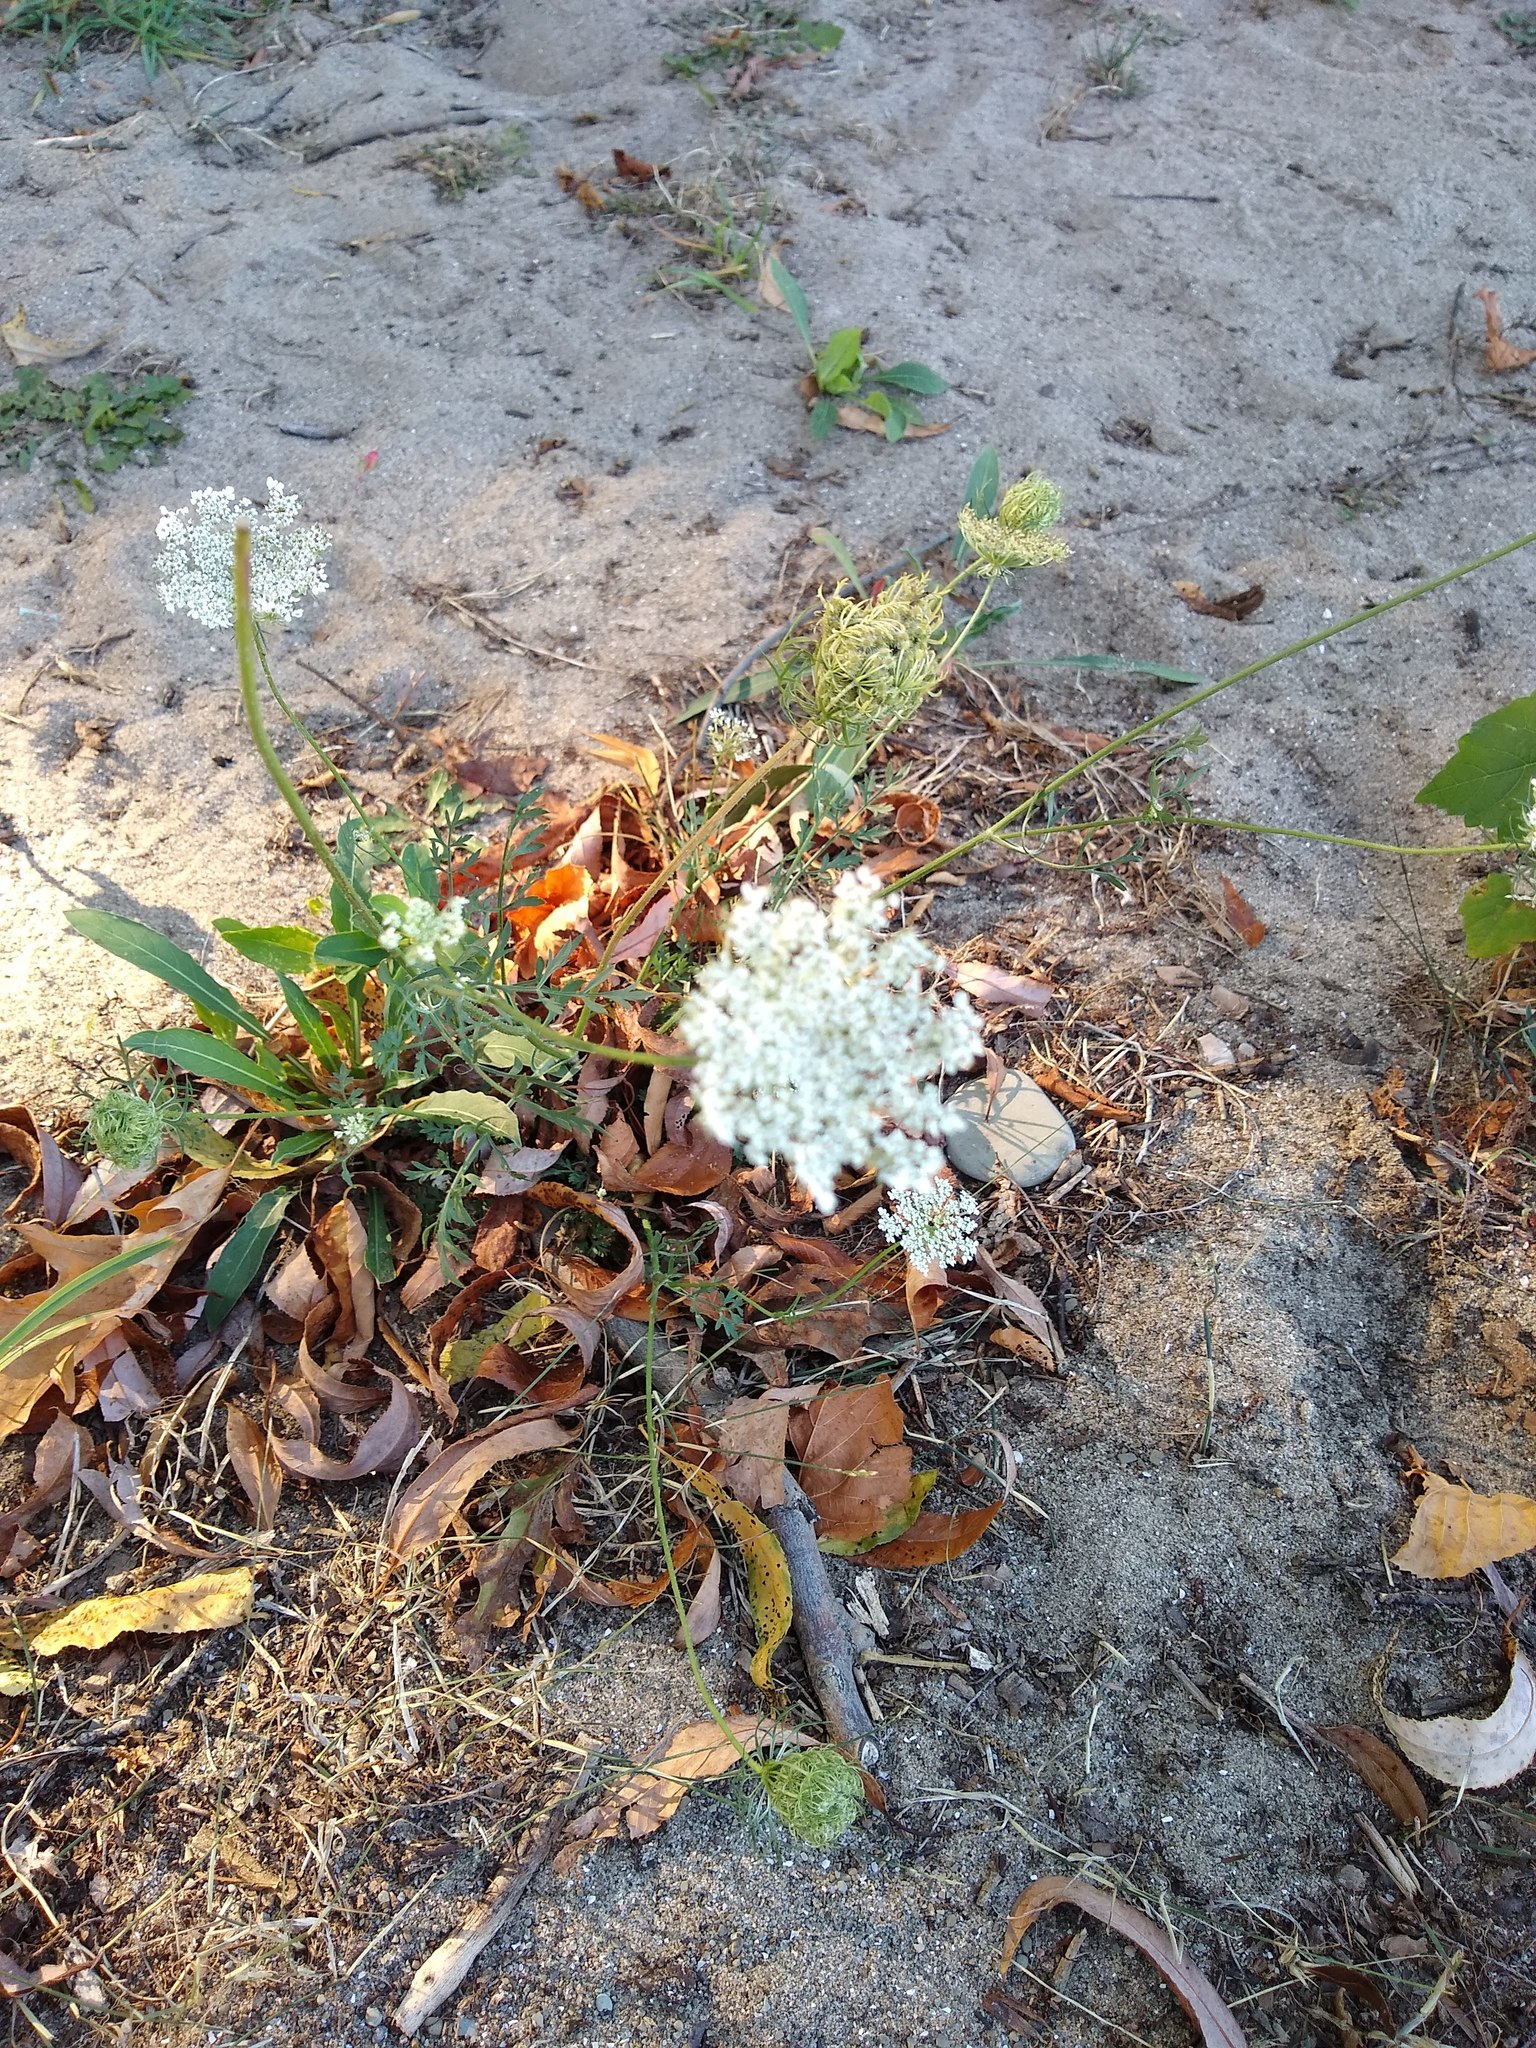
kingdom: Plantae
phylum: Tracheophyta
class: Magnoliopsida
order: Apiales
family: Apiaceae
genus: Daucus
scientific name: Daucus carota
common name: Wild carrot
